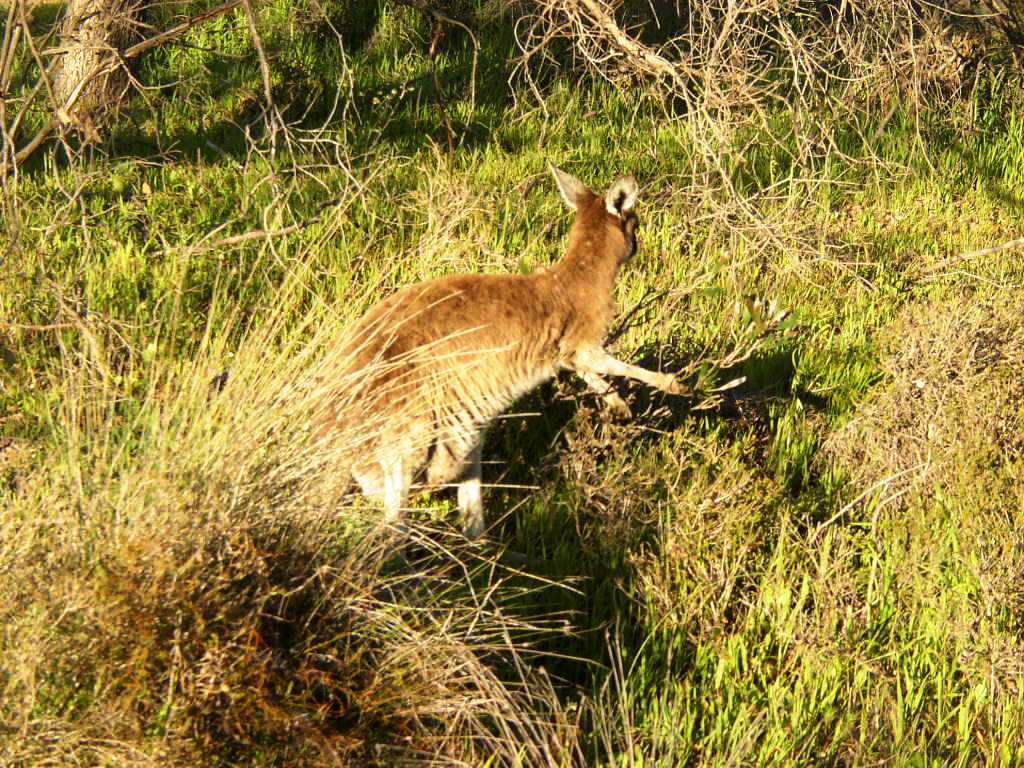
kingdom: Animalia
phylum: Chordata
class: Mammalia
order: Diprotodontia
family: Macropodidae
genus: Macropus
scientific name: Macropus fuliginosus
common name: Western grey kangaroo
